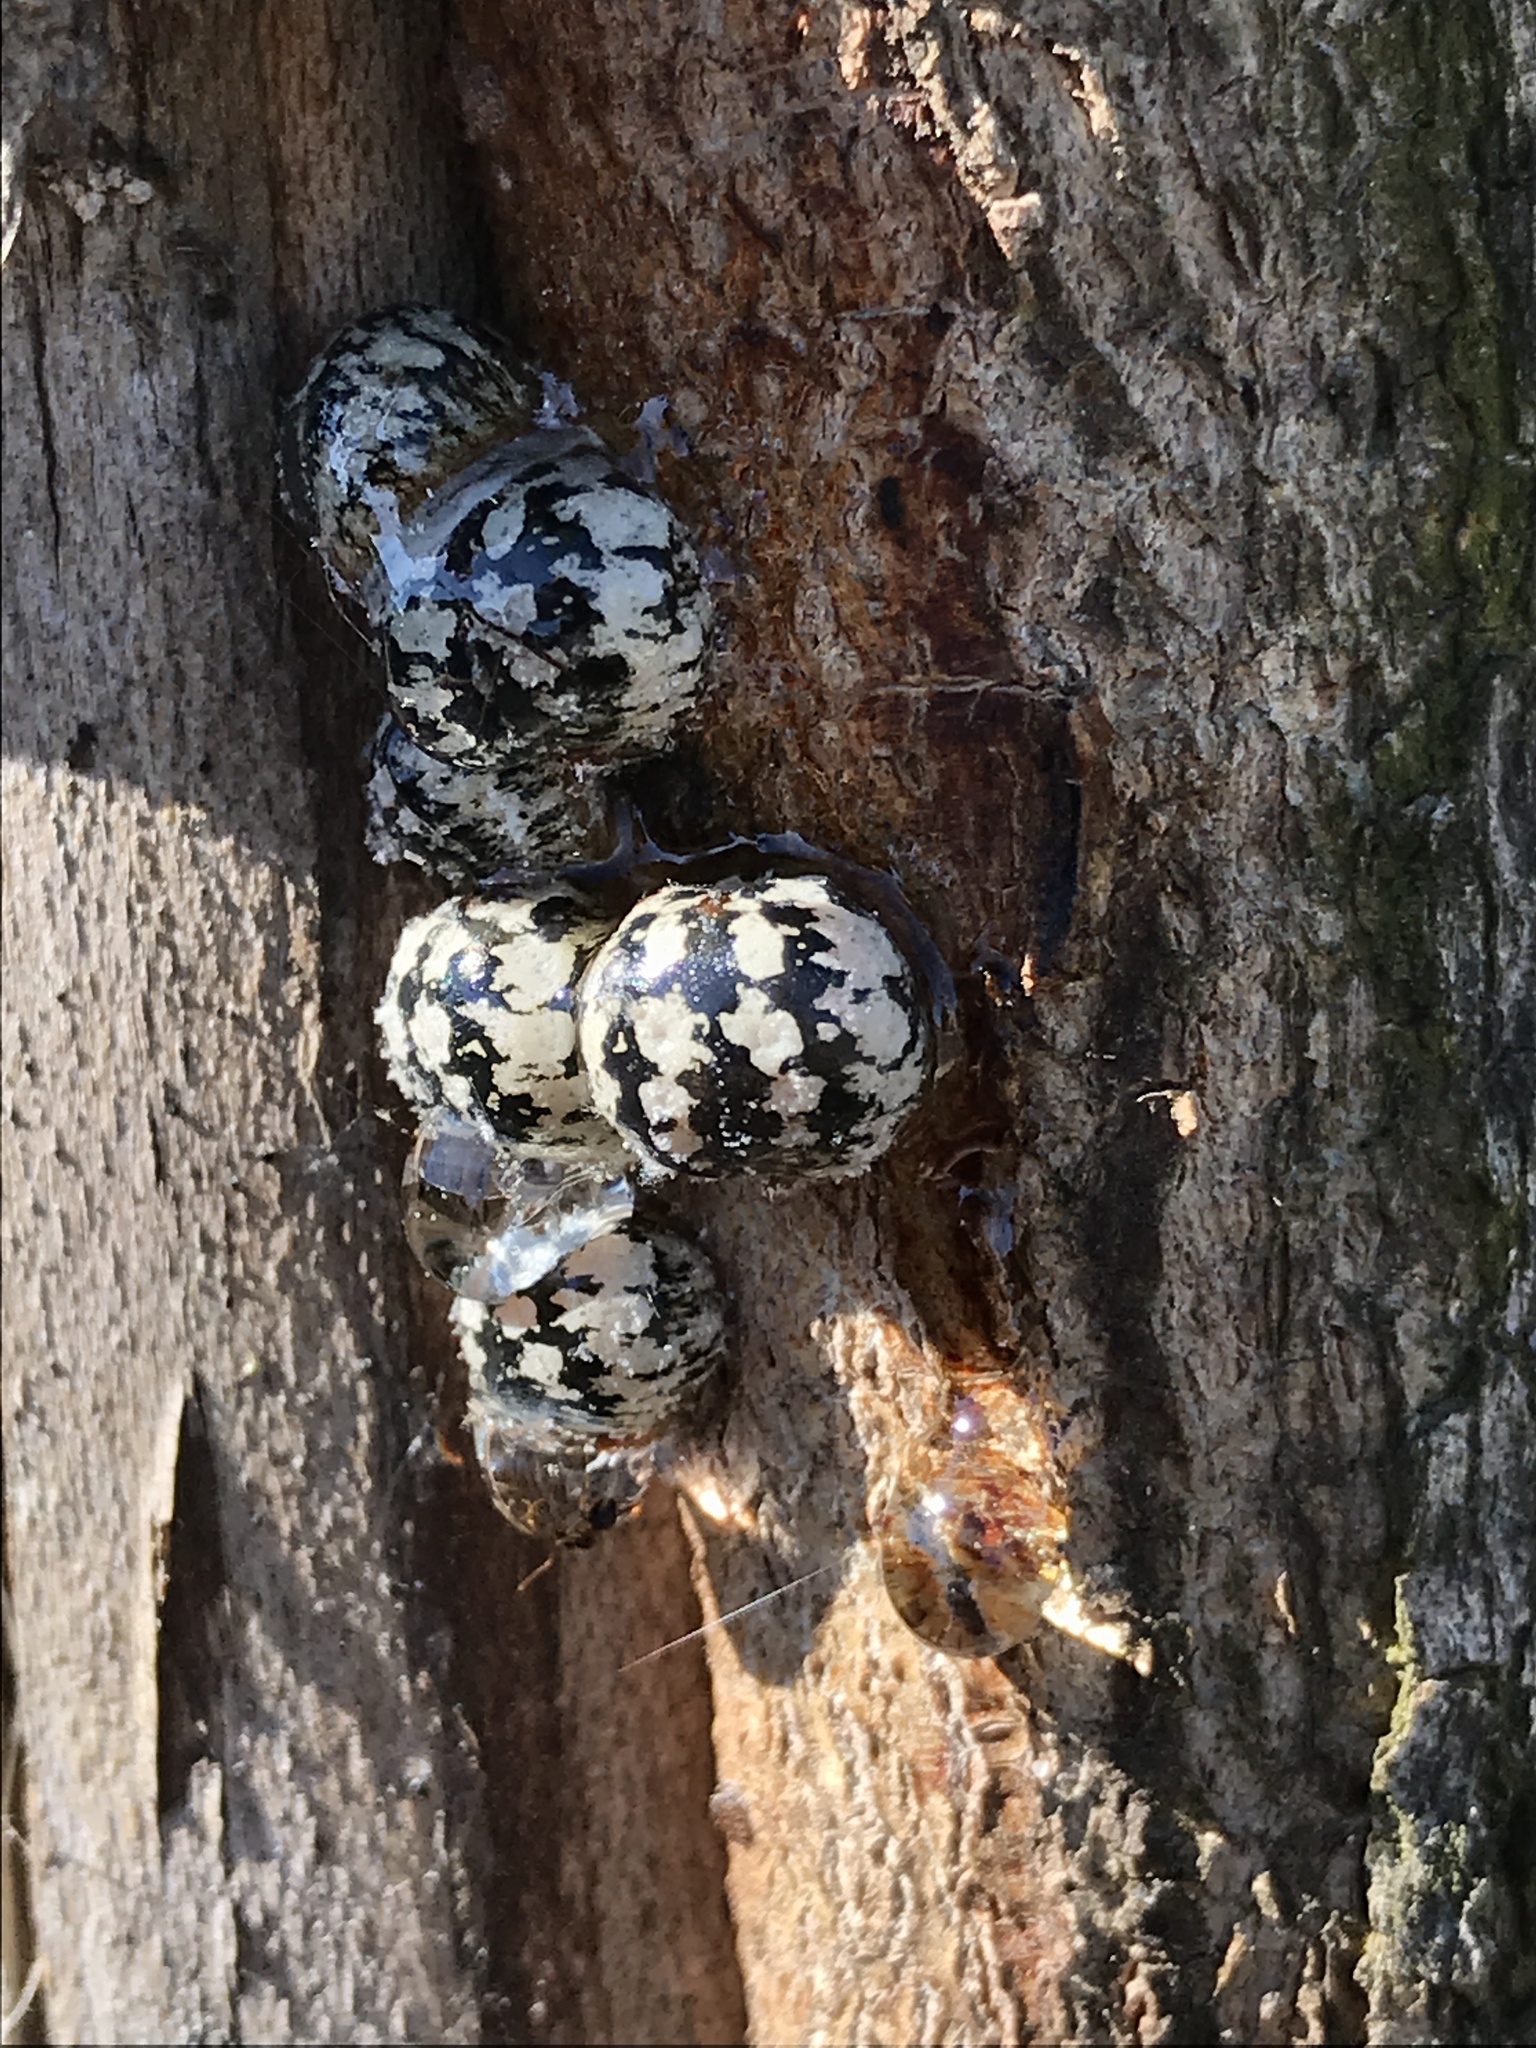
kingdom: Animalia
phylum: Arthropoda
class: Insecta
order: Hemiptera
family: Coccidae
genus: Eulecanium
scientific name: Eulecanium cerasorum
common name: Calico scale
